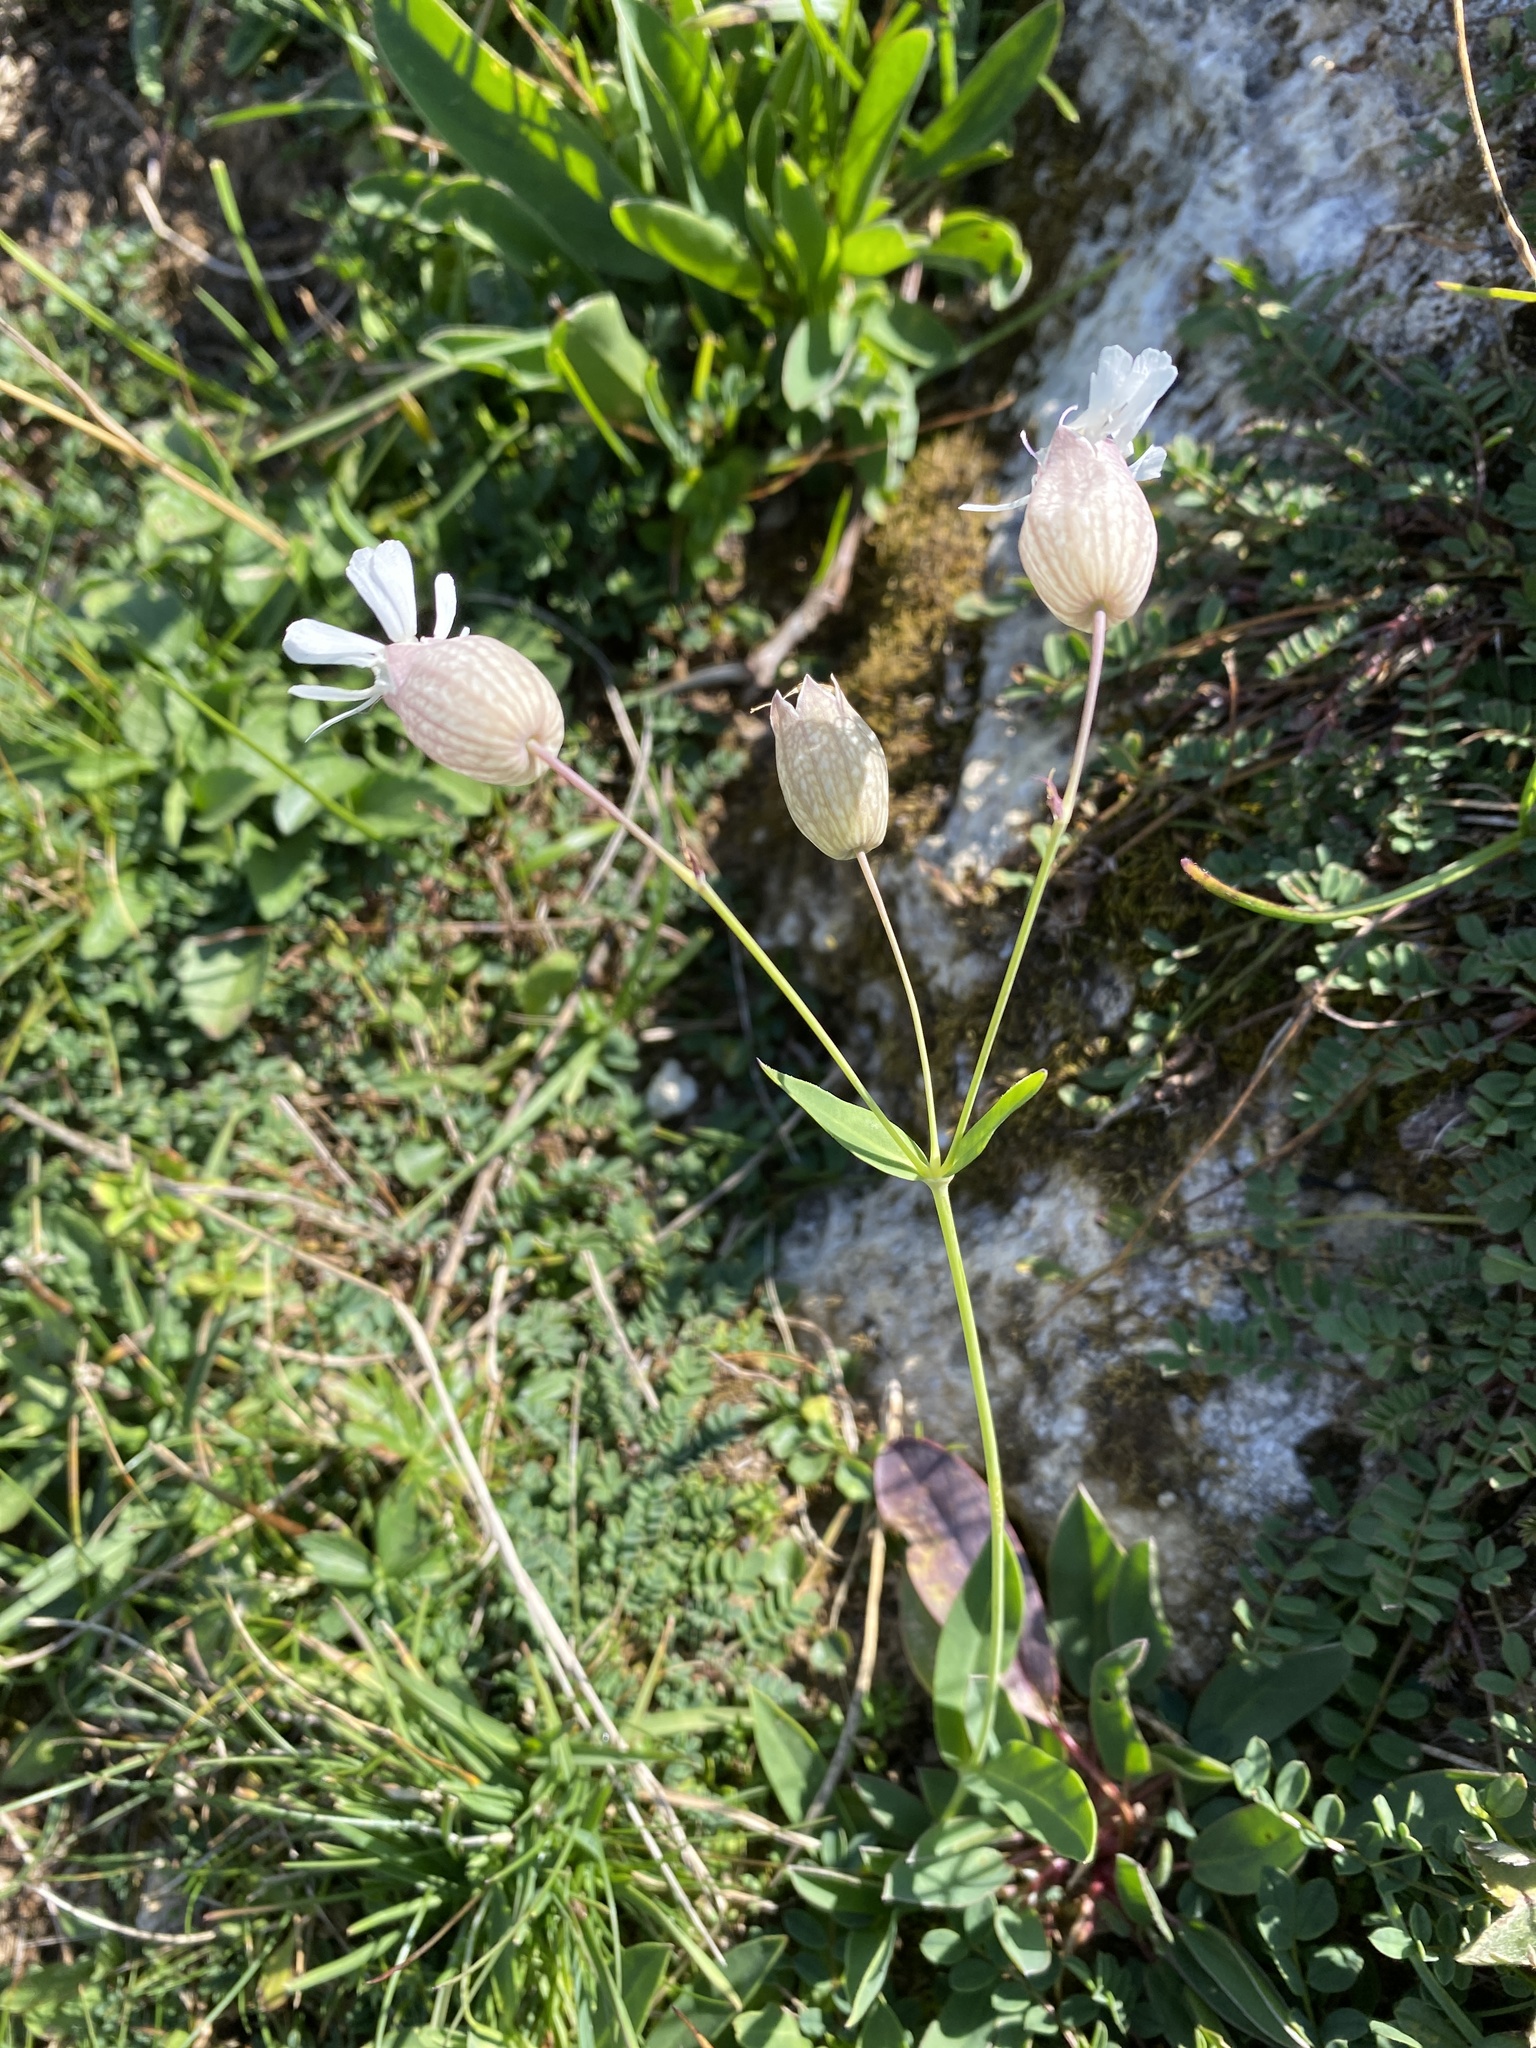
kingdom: Plantae
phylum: Tracheophyta
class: Magnoliopsida
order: Caryophyllales
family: Caryophyllaceae
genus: Silene
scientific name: Silene vulgaris
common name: Bladder campion
